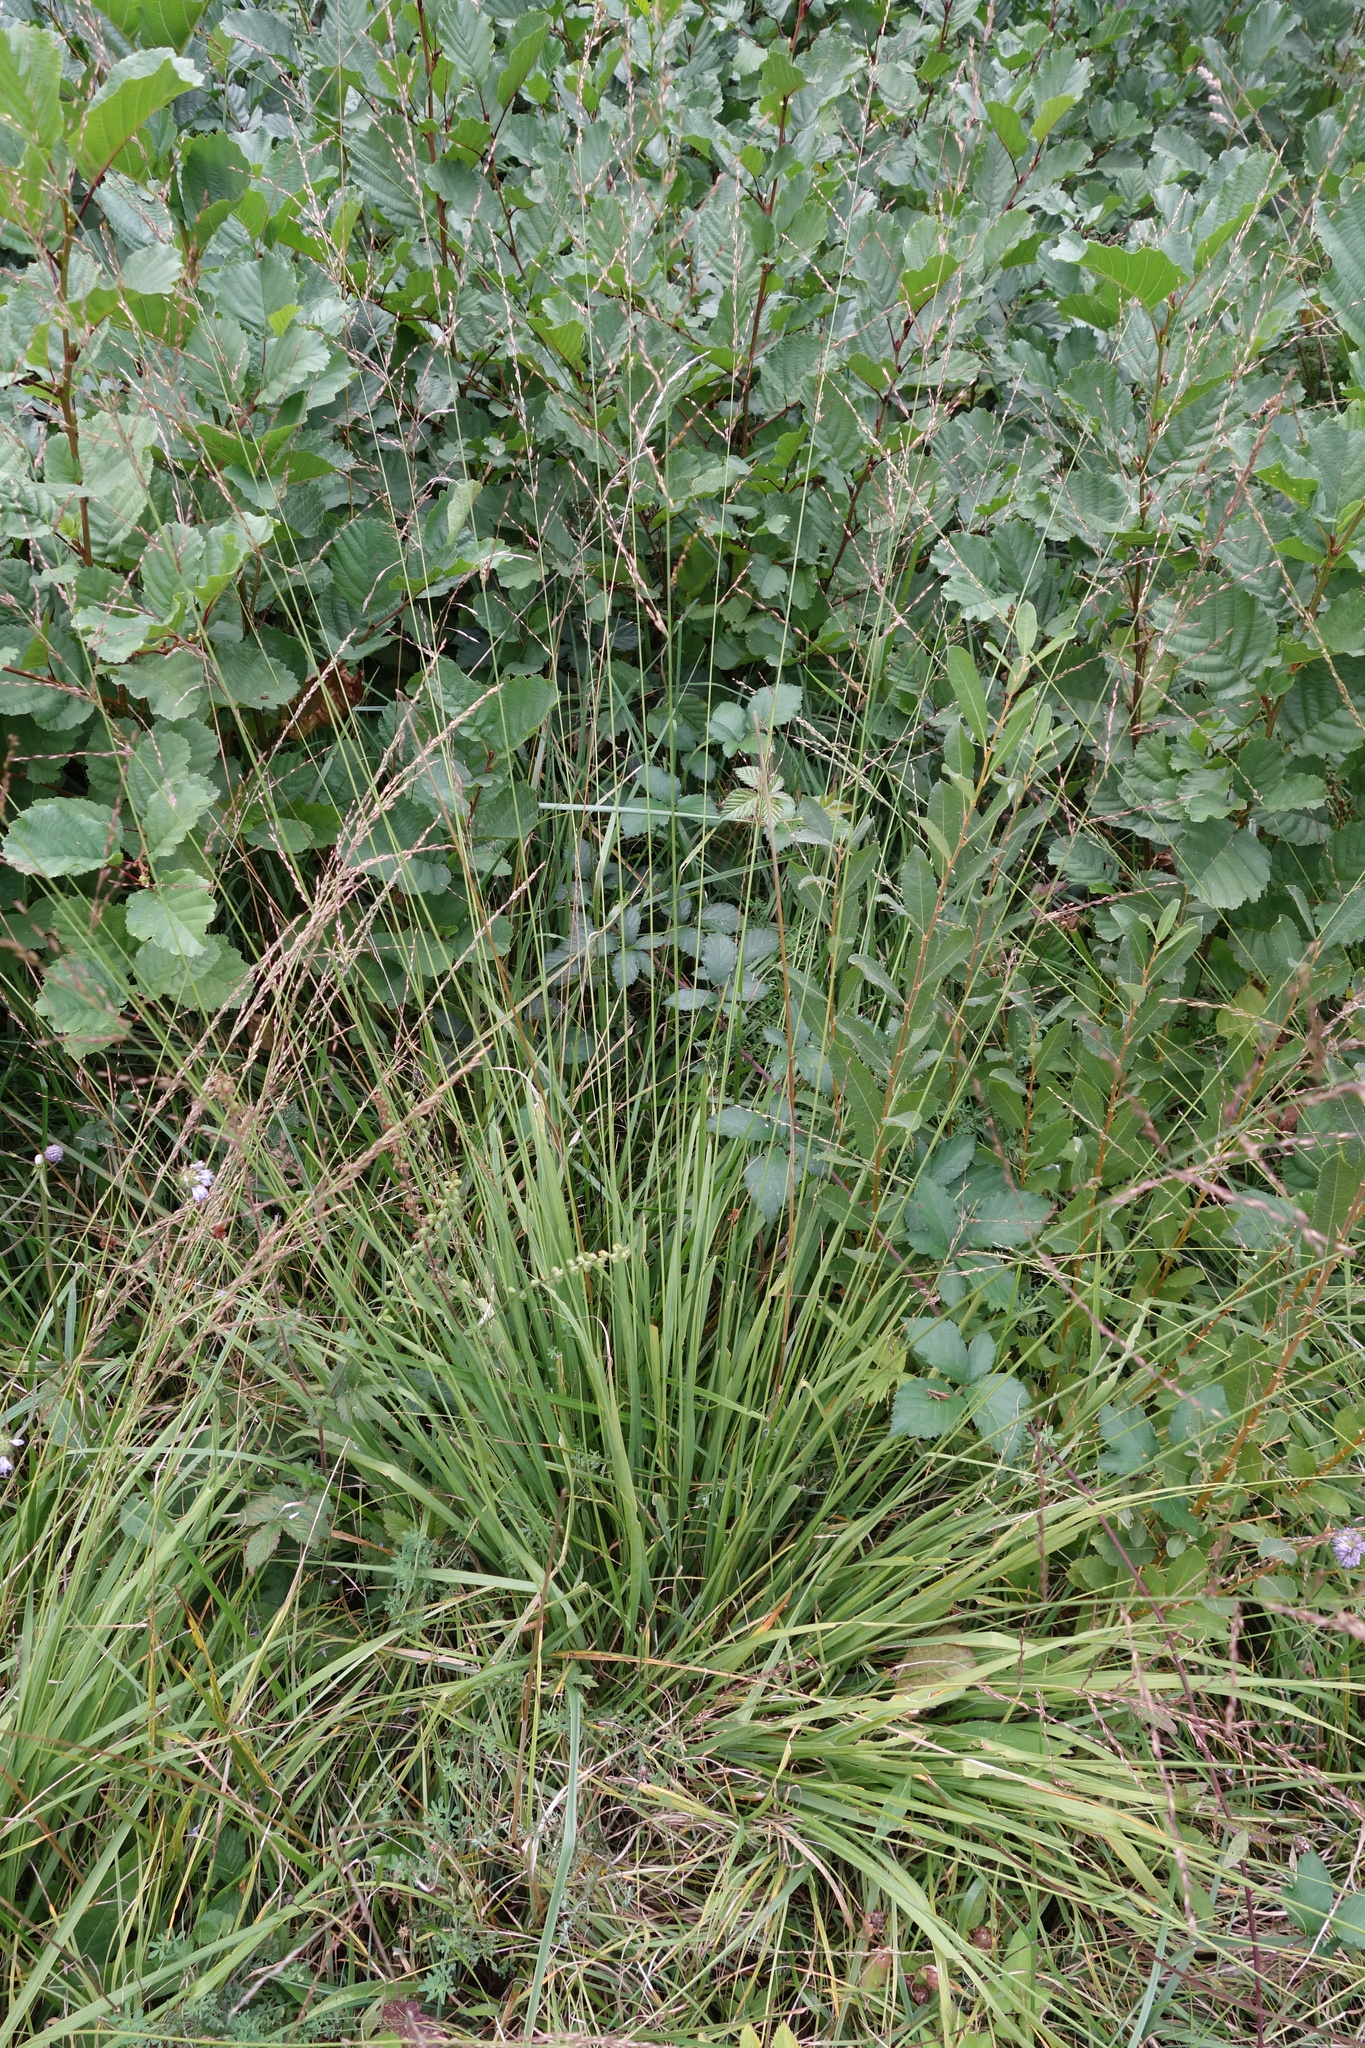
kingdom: Plantae
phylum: Tracheophyta
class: Liliopsida
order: Poales
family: Poaceae
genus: Molinia
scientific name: Molinia caerulea
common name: Purple moor-grass
